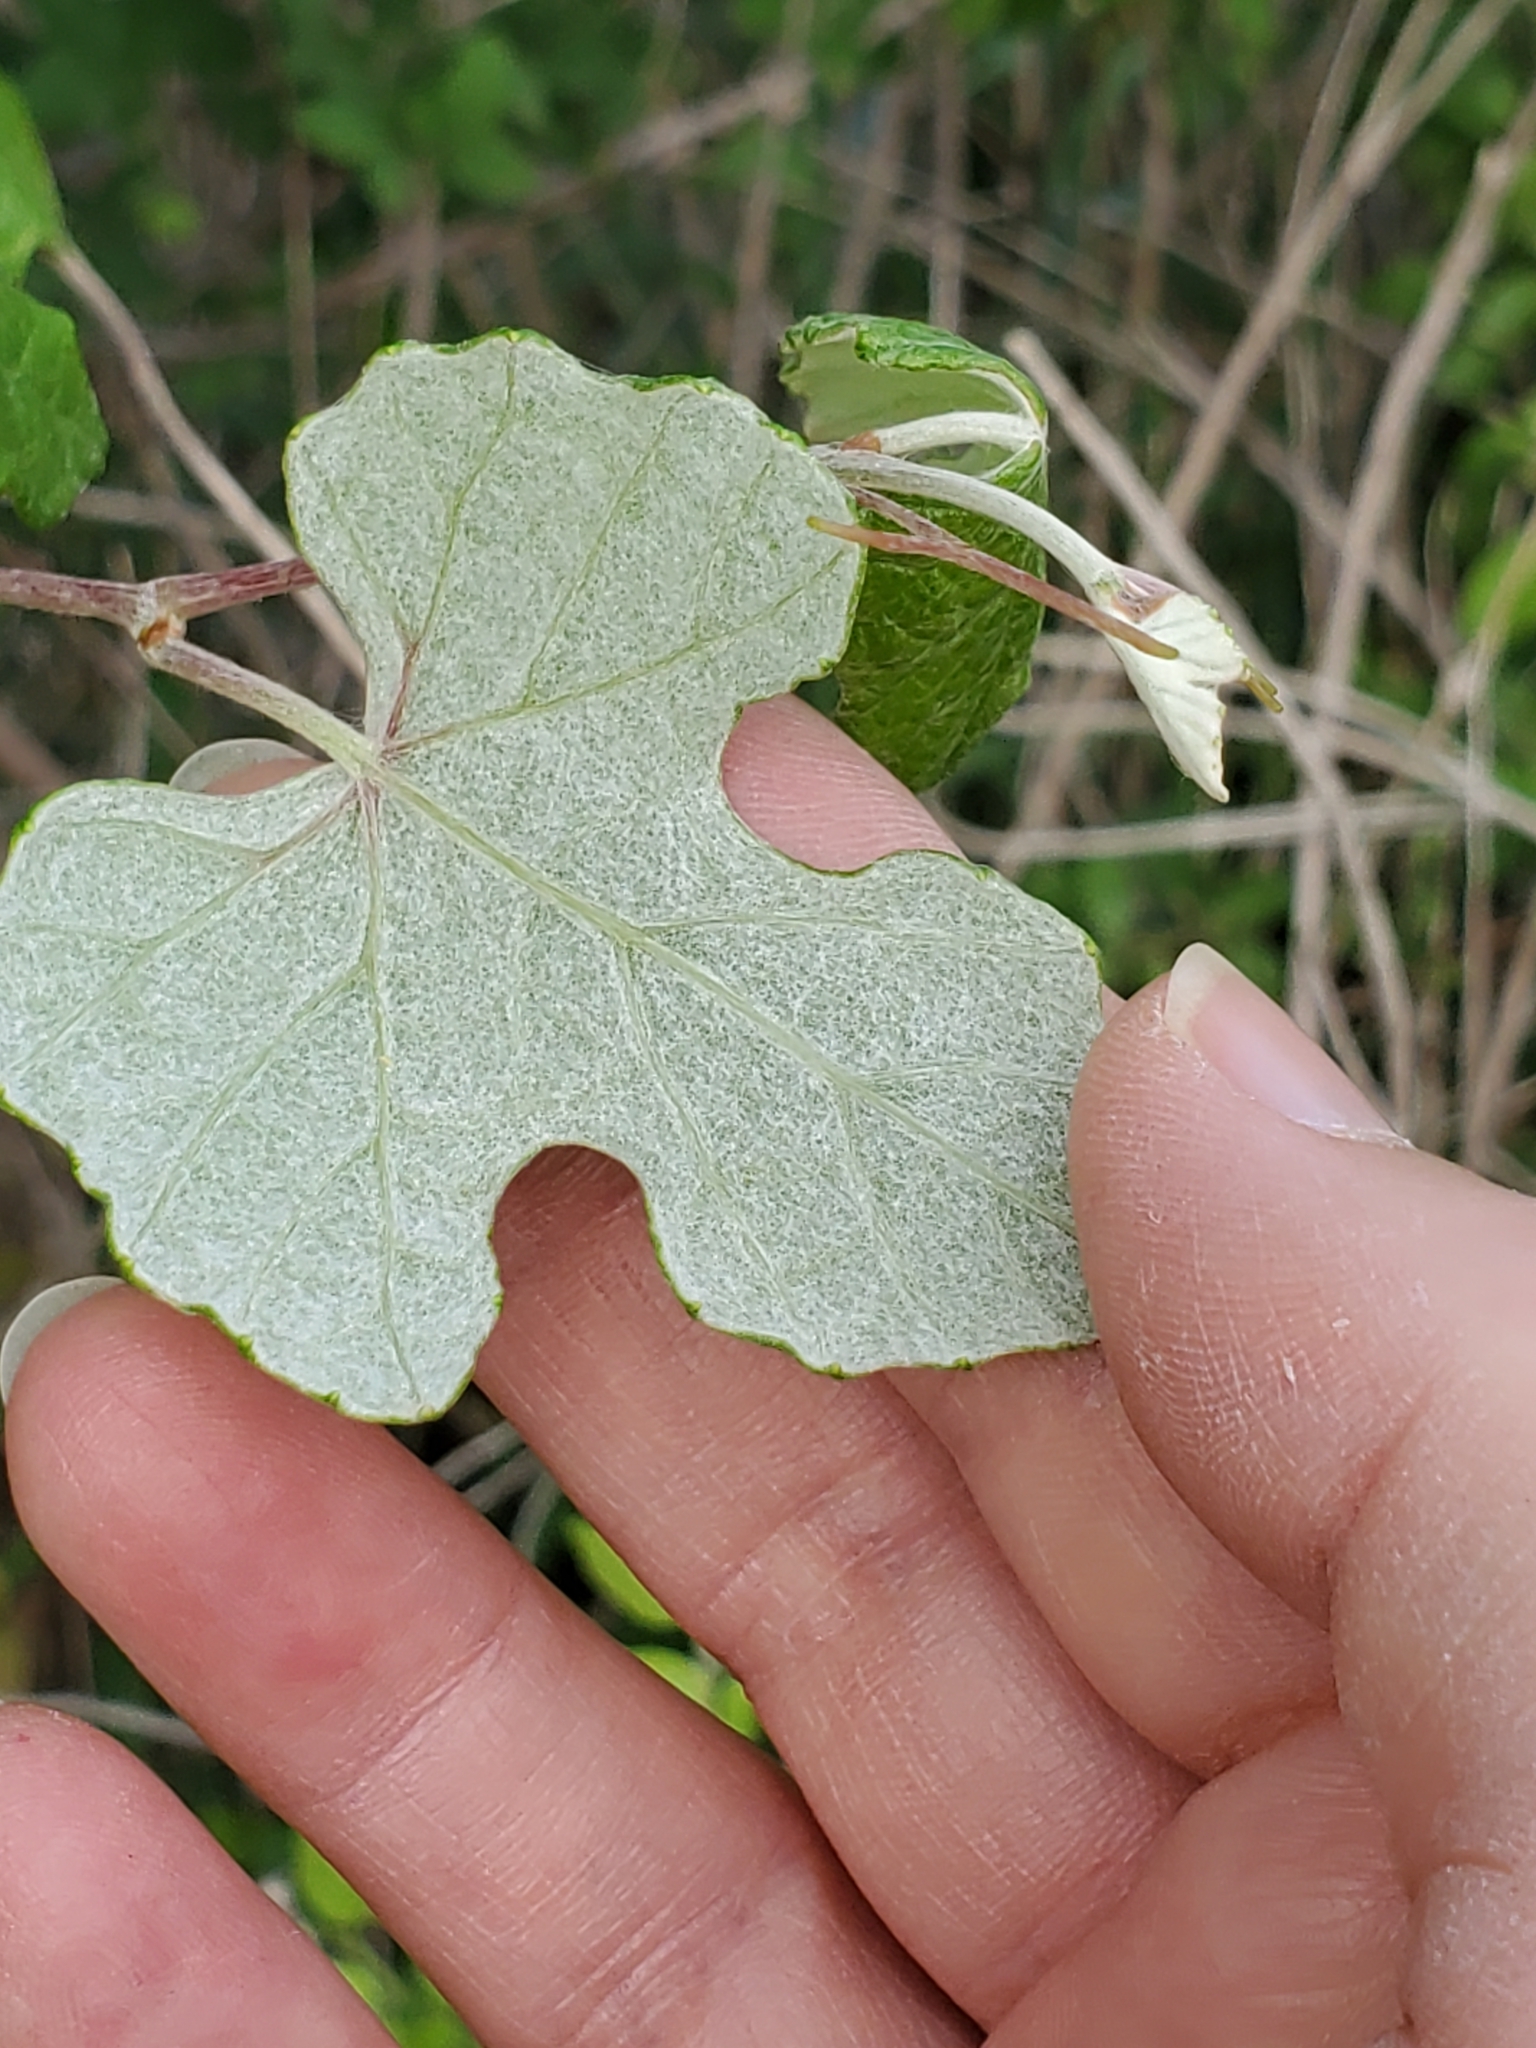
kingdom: Plantae
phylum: Tracheophyta
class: Magnoliopsida
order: Vitales
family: Vitaceae
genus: Vitis
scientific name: Vitis mustangensis
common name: Mustang grape
